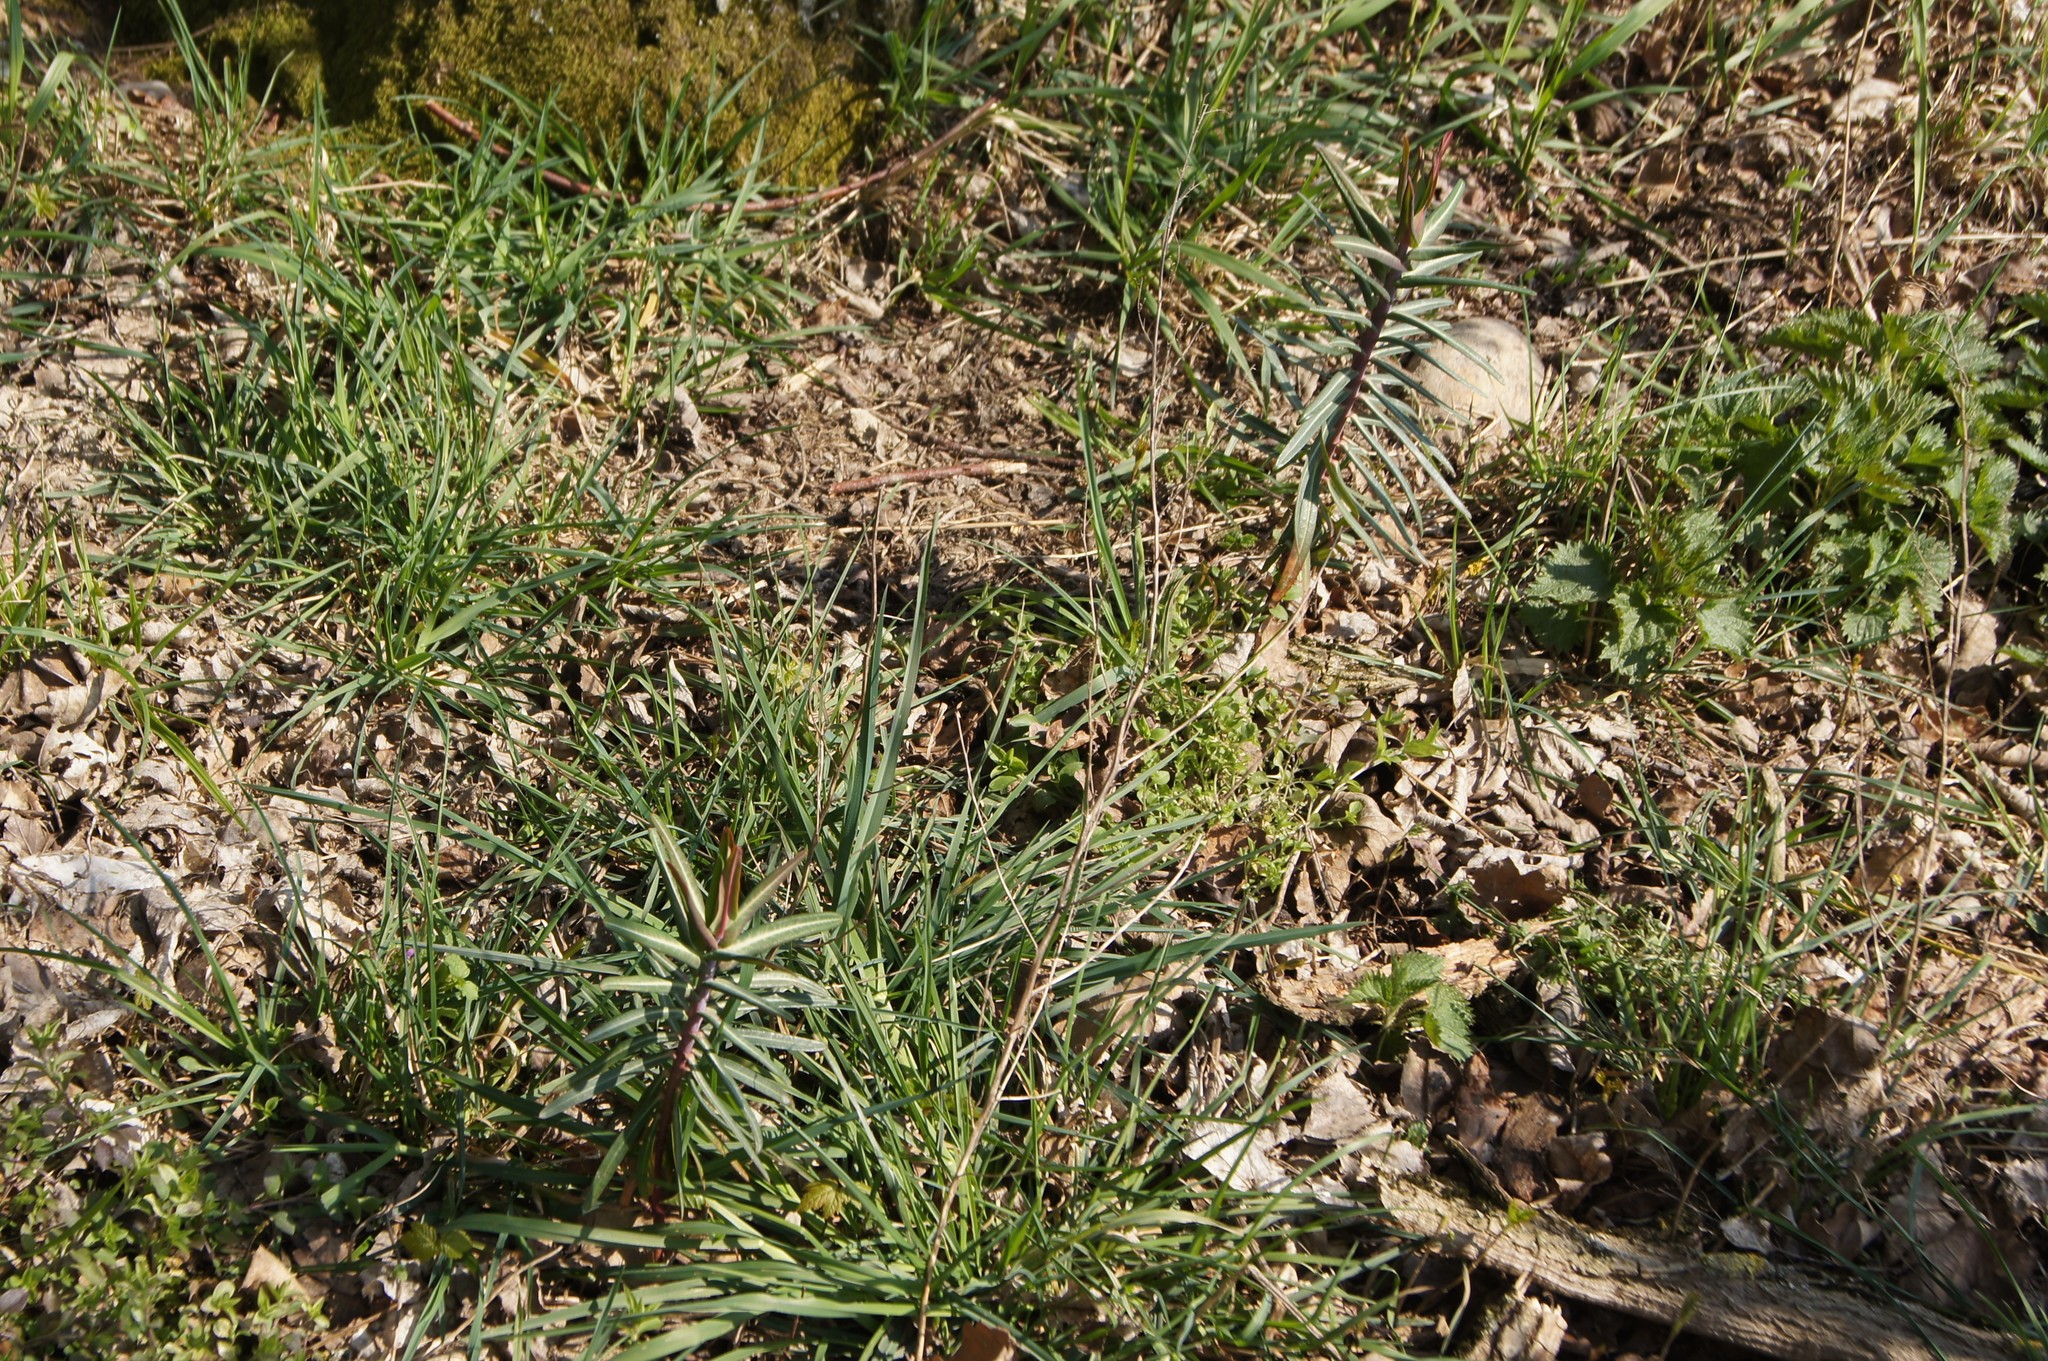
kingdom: Plantae
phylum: Tracheophyta
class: Magnoliopsida
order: Malpighiales
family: Euphorbiaceae
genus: Euphorbia
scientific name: Euphorbia lathyris
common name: Caper spurge
